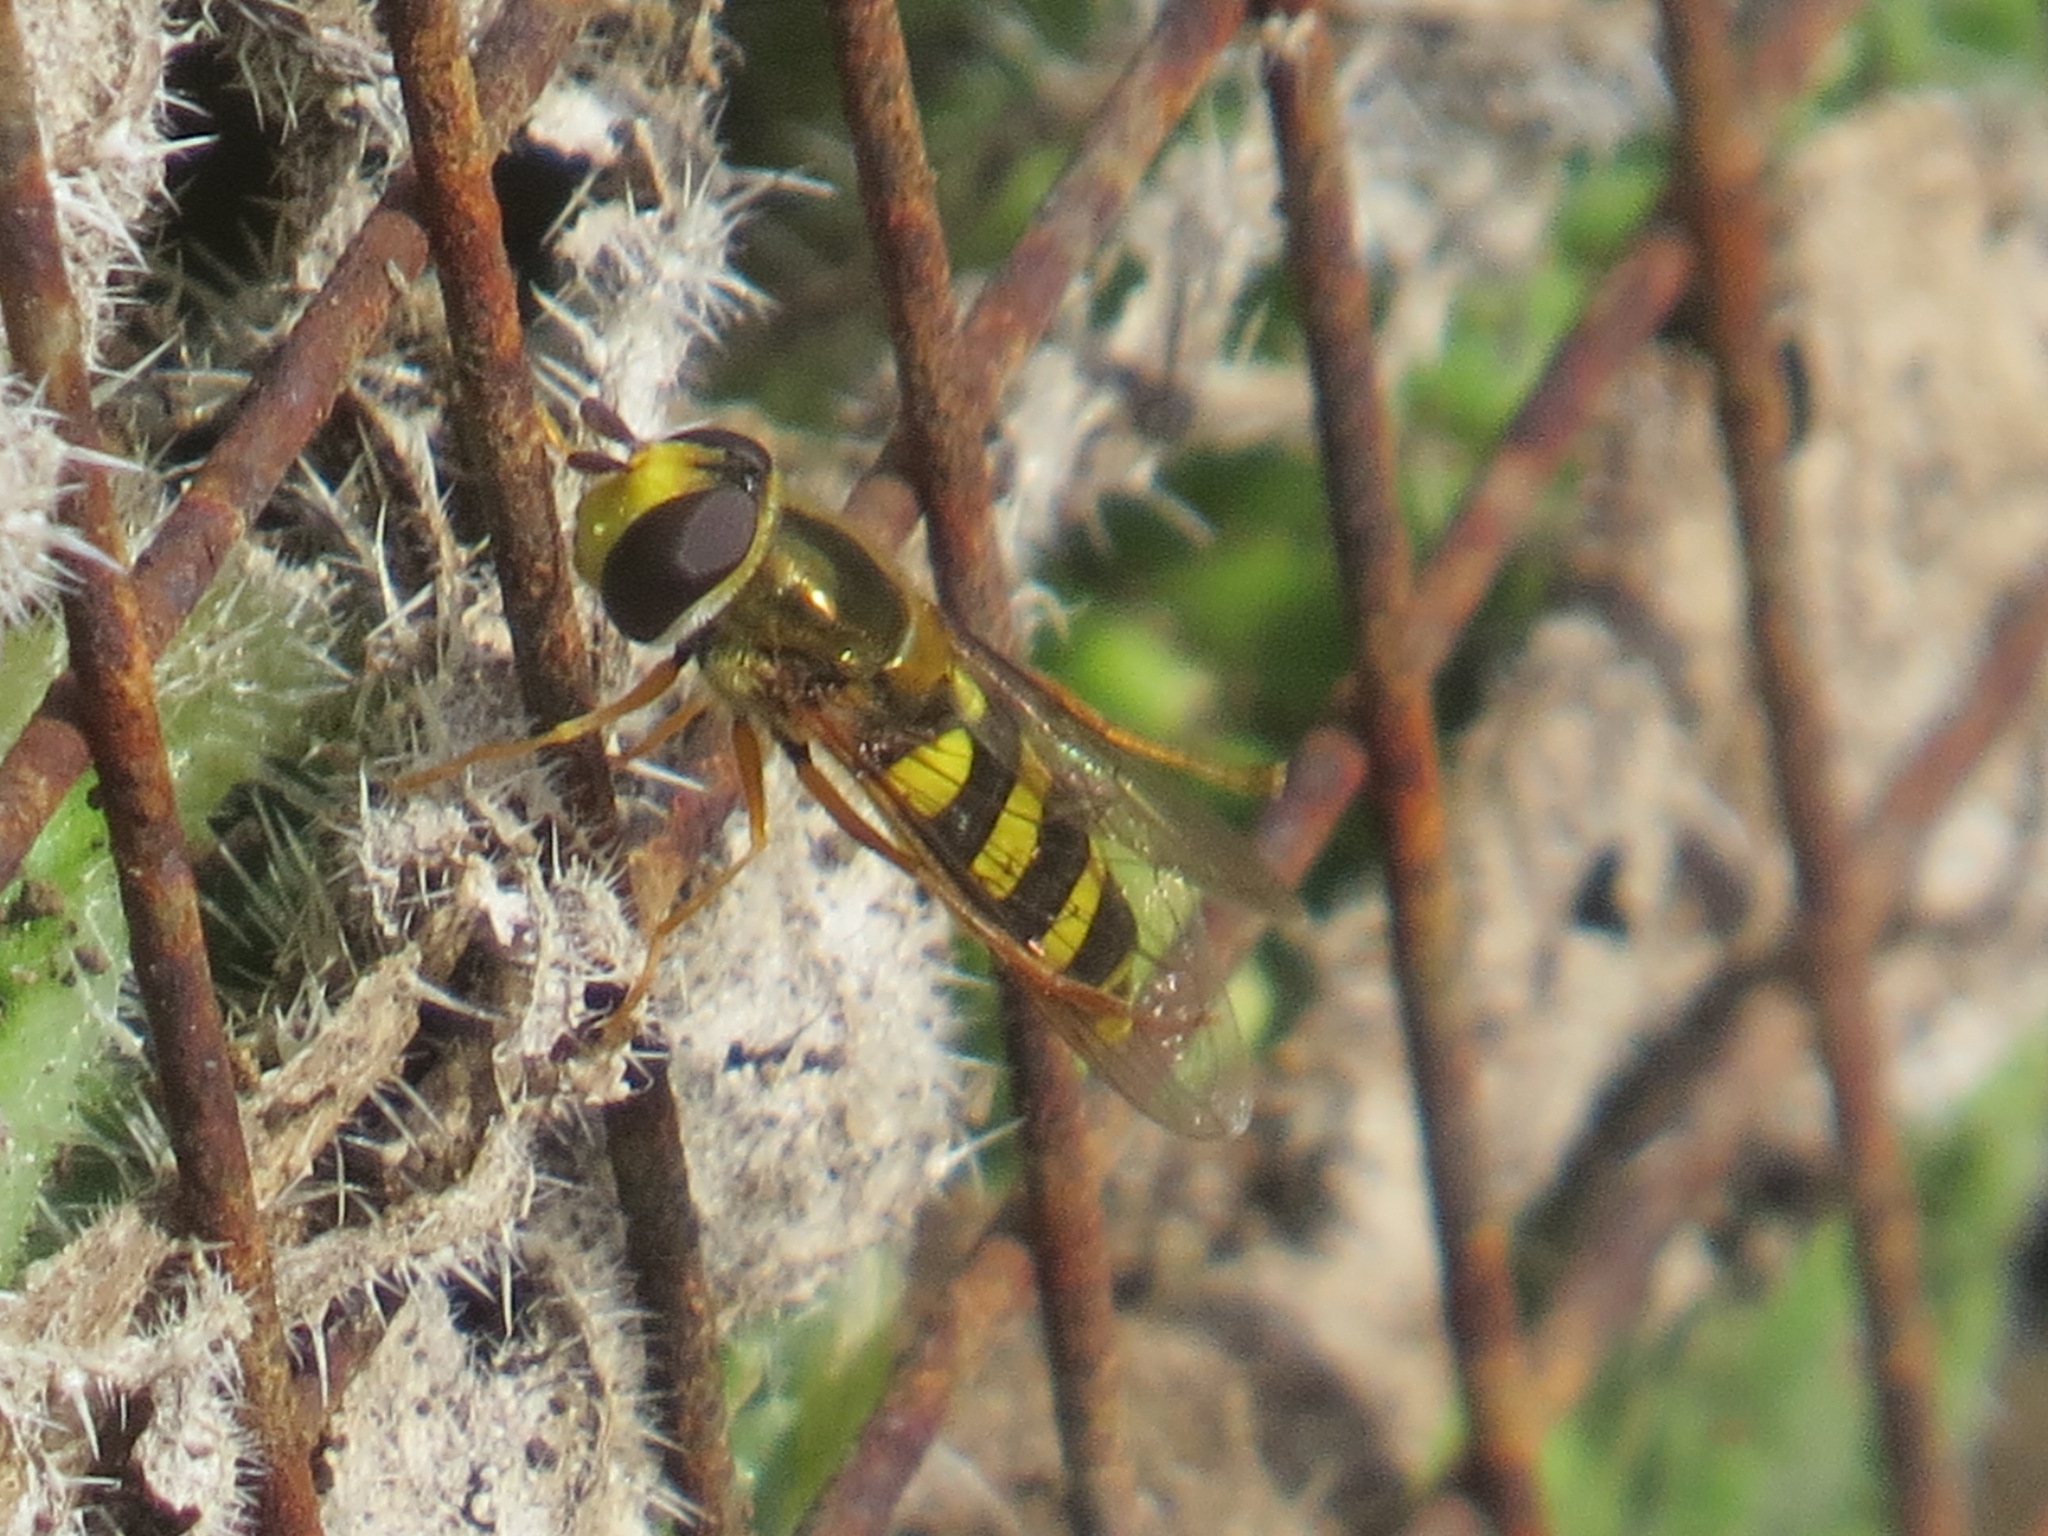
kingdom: Animalia
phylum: Arthropoda
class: Insecta
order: Diptera
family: Syrphidae
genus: Eupeodes
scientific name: Eupeodes fumipennis
